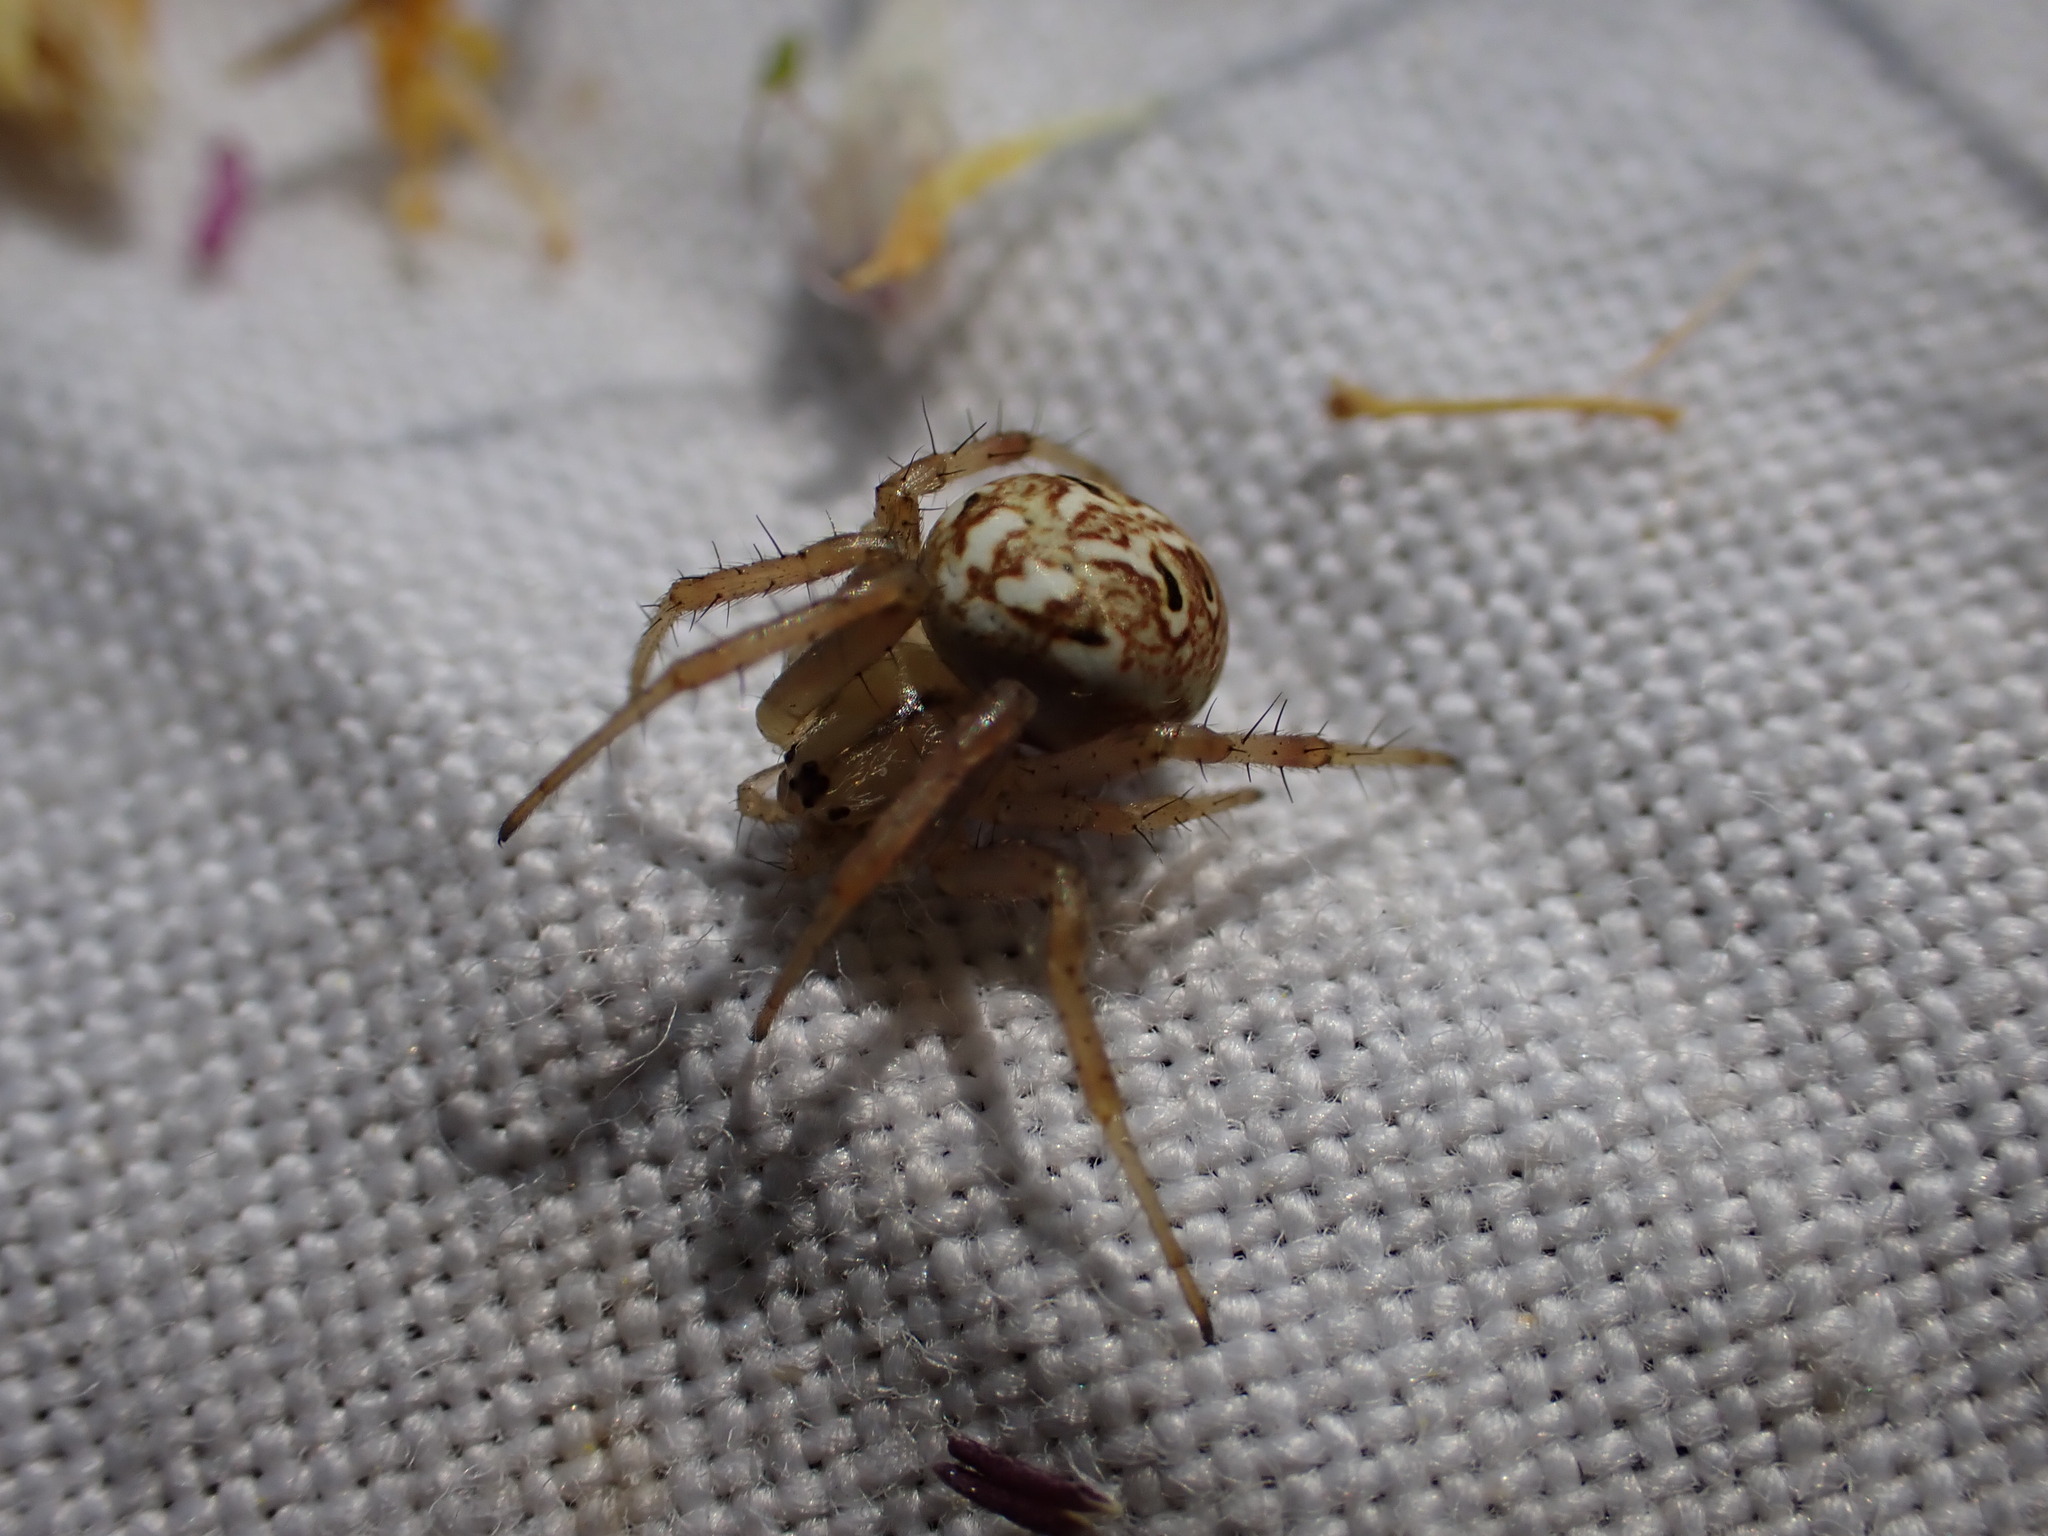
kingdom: Animalia
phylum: Arthropoda
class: Arachnida
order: Araneae
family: Araneidae
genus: Neoscona
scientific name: Neoscona byzanthina
